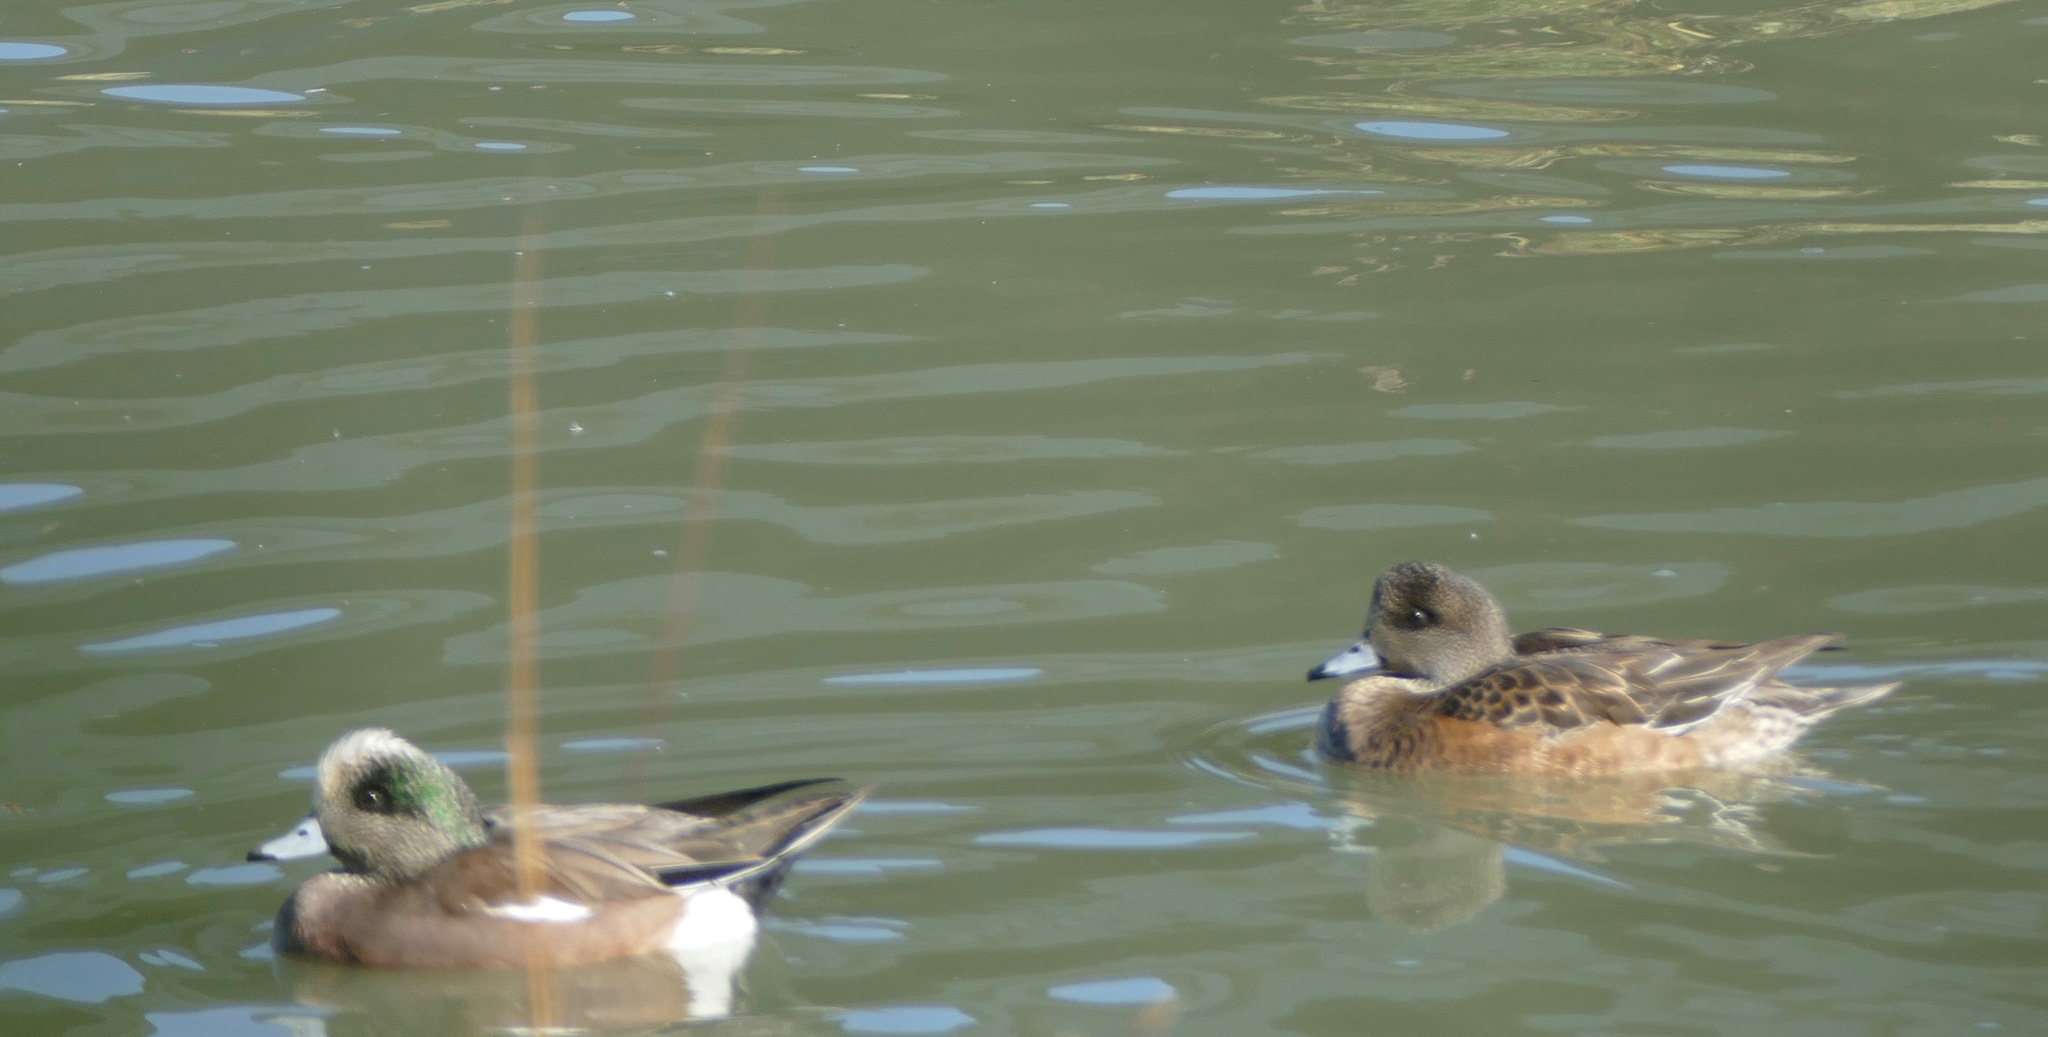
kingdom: Animalia
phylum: Chordata
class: Aves
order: Anseriformes
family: Anatidae
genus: Mareca
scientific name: Mareca americana
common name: American wigeon
